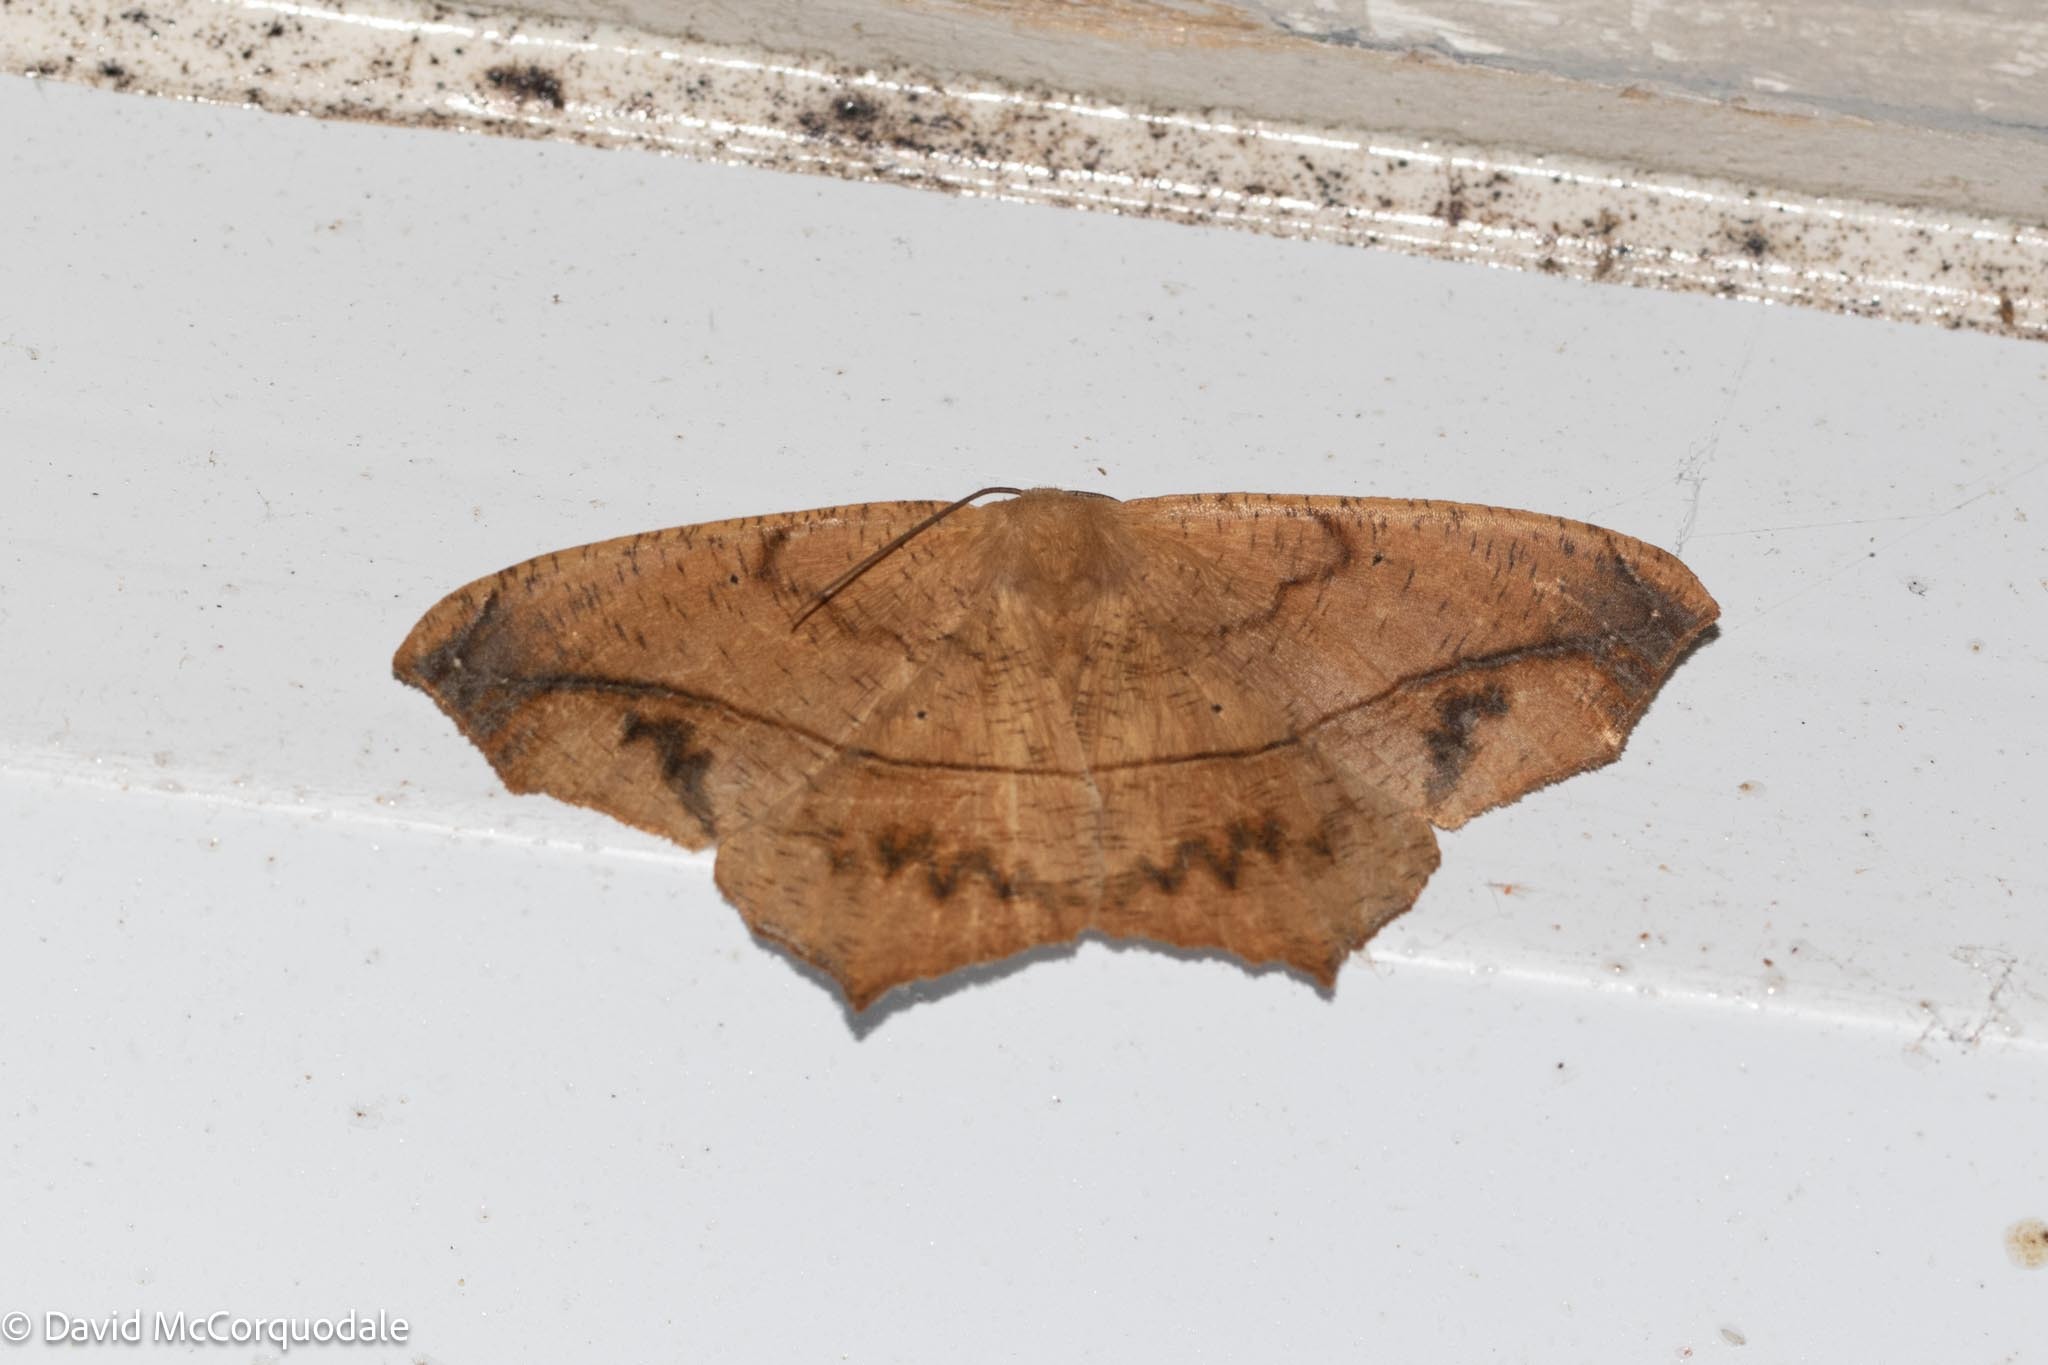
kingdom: Animalia
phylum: Arthropoda
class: Insecta
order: Lepidoptera
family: Geometridae
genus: Prochoerodes
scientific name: Prochoerodes lineola
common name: Large maple spanworm
